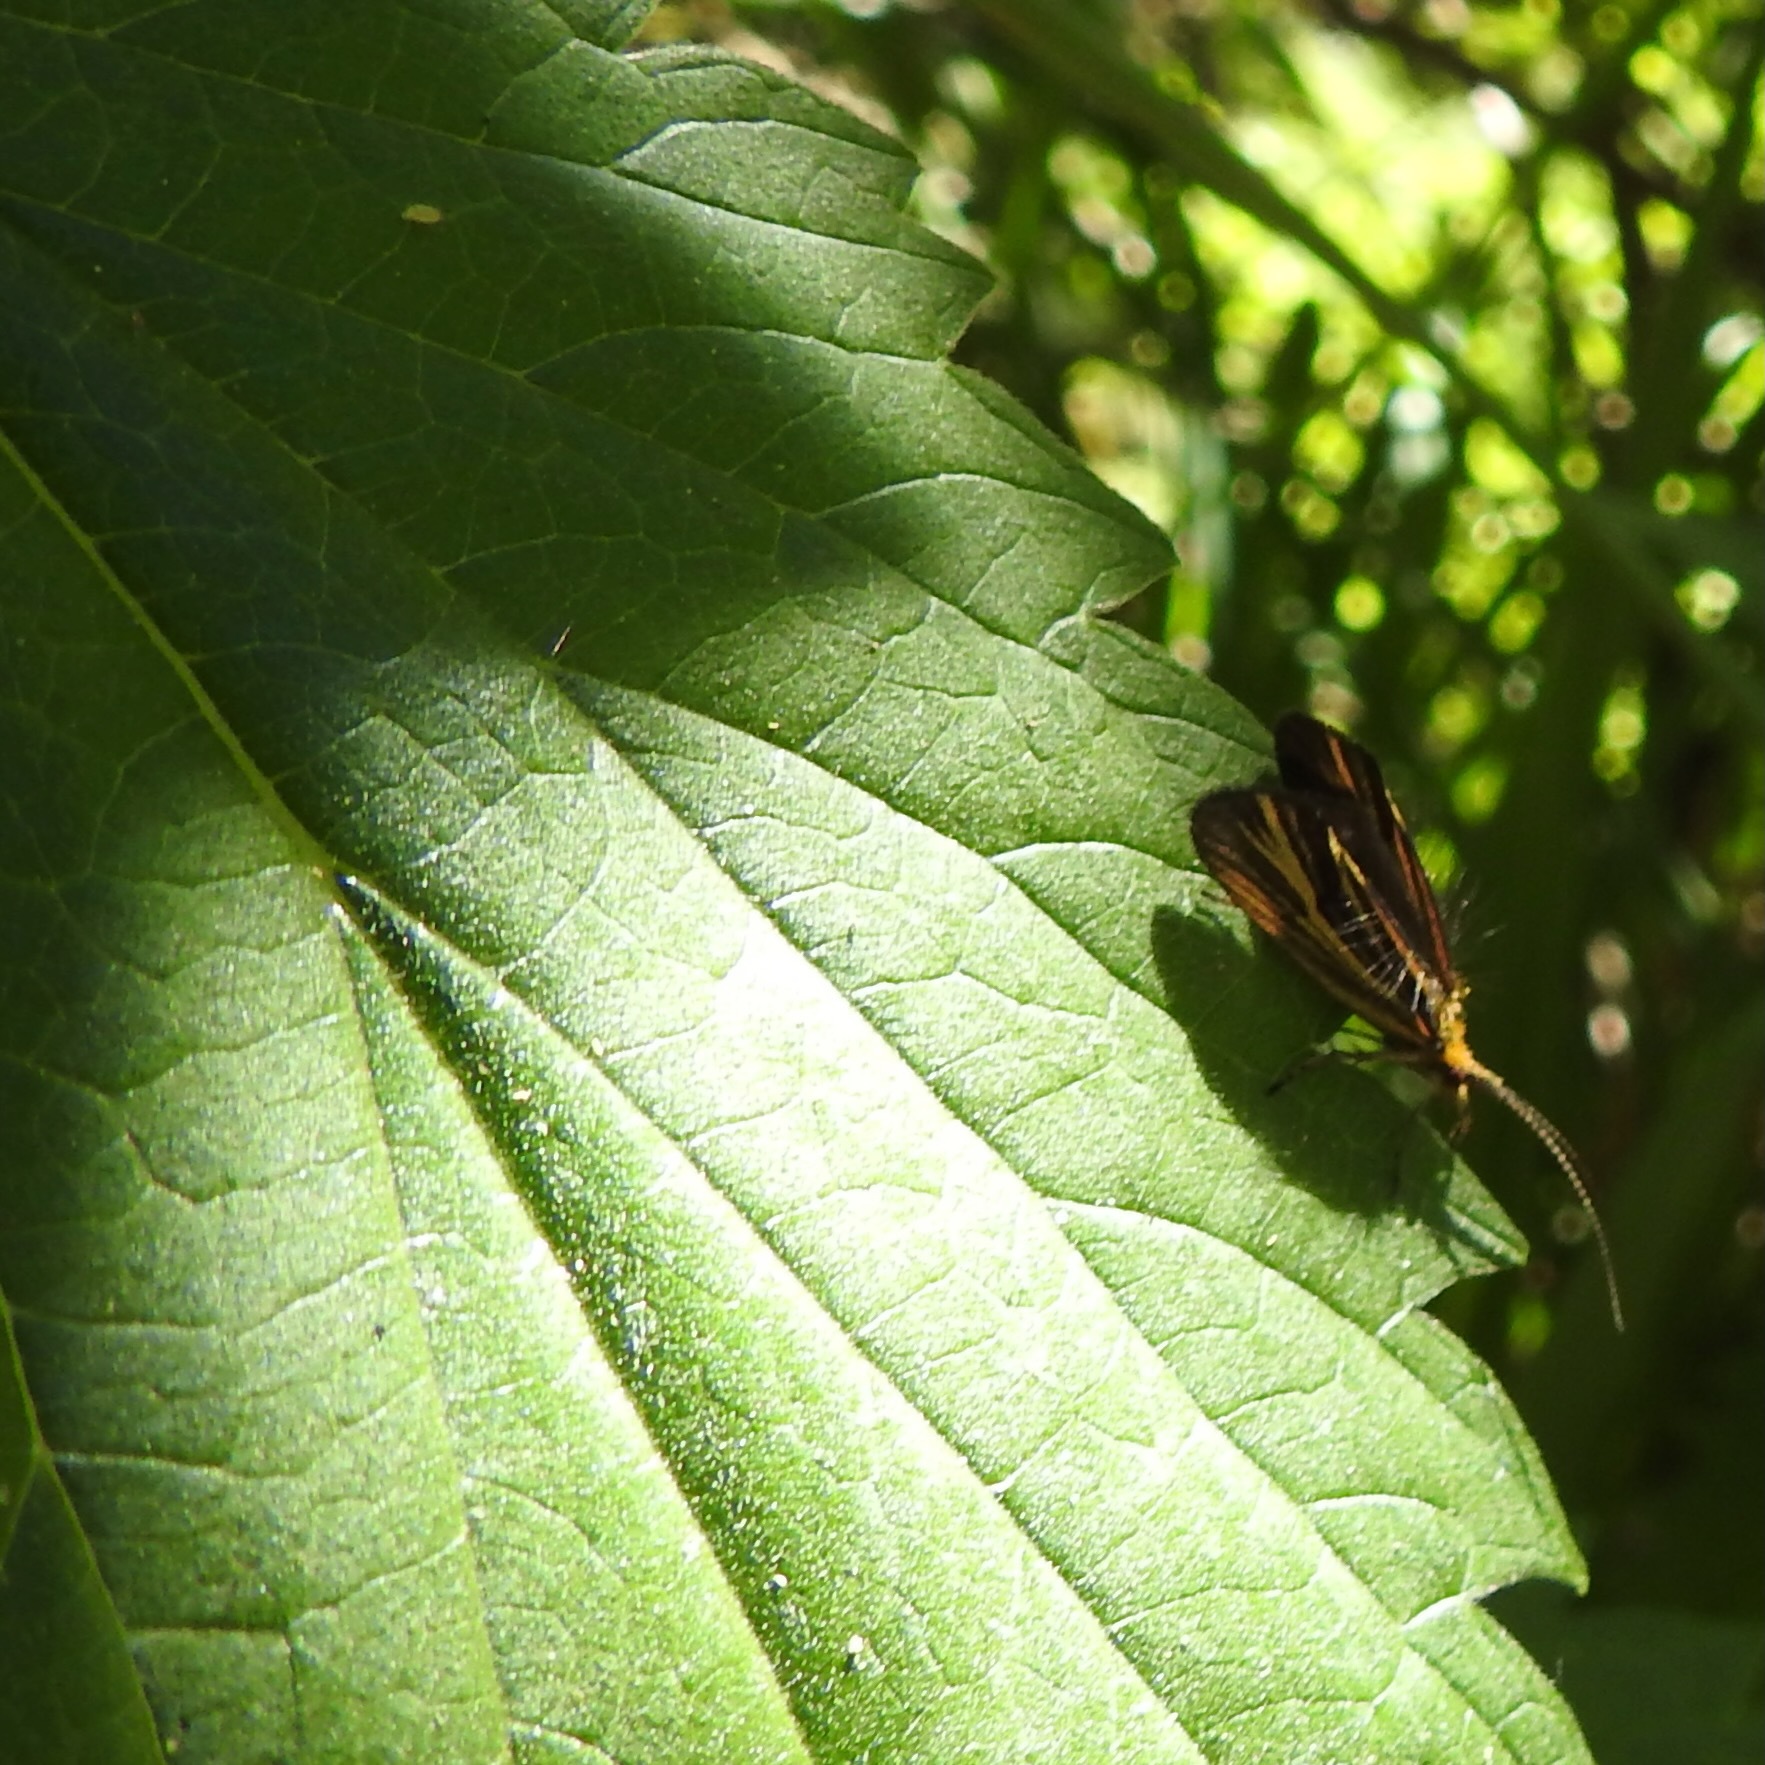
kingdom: Animalia
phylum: Arthropoda
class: Insecta
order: Trichoptera
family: Odontoceridae
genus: Nerophilus
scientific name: Nerophilus californicus
